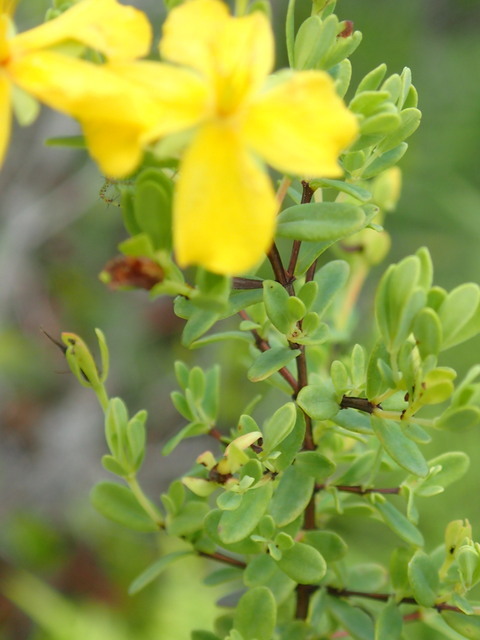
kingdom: Plantae
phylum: Tracheophyta
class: Magnoliopsida
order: Malpighiales
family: Hypericaceae
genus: Hypericum
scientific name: Hypericum microsepalum
